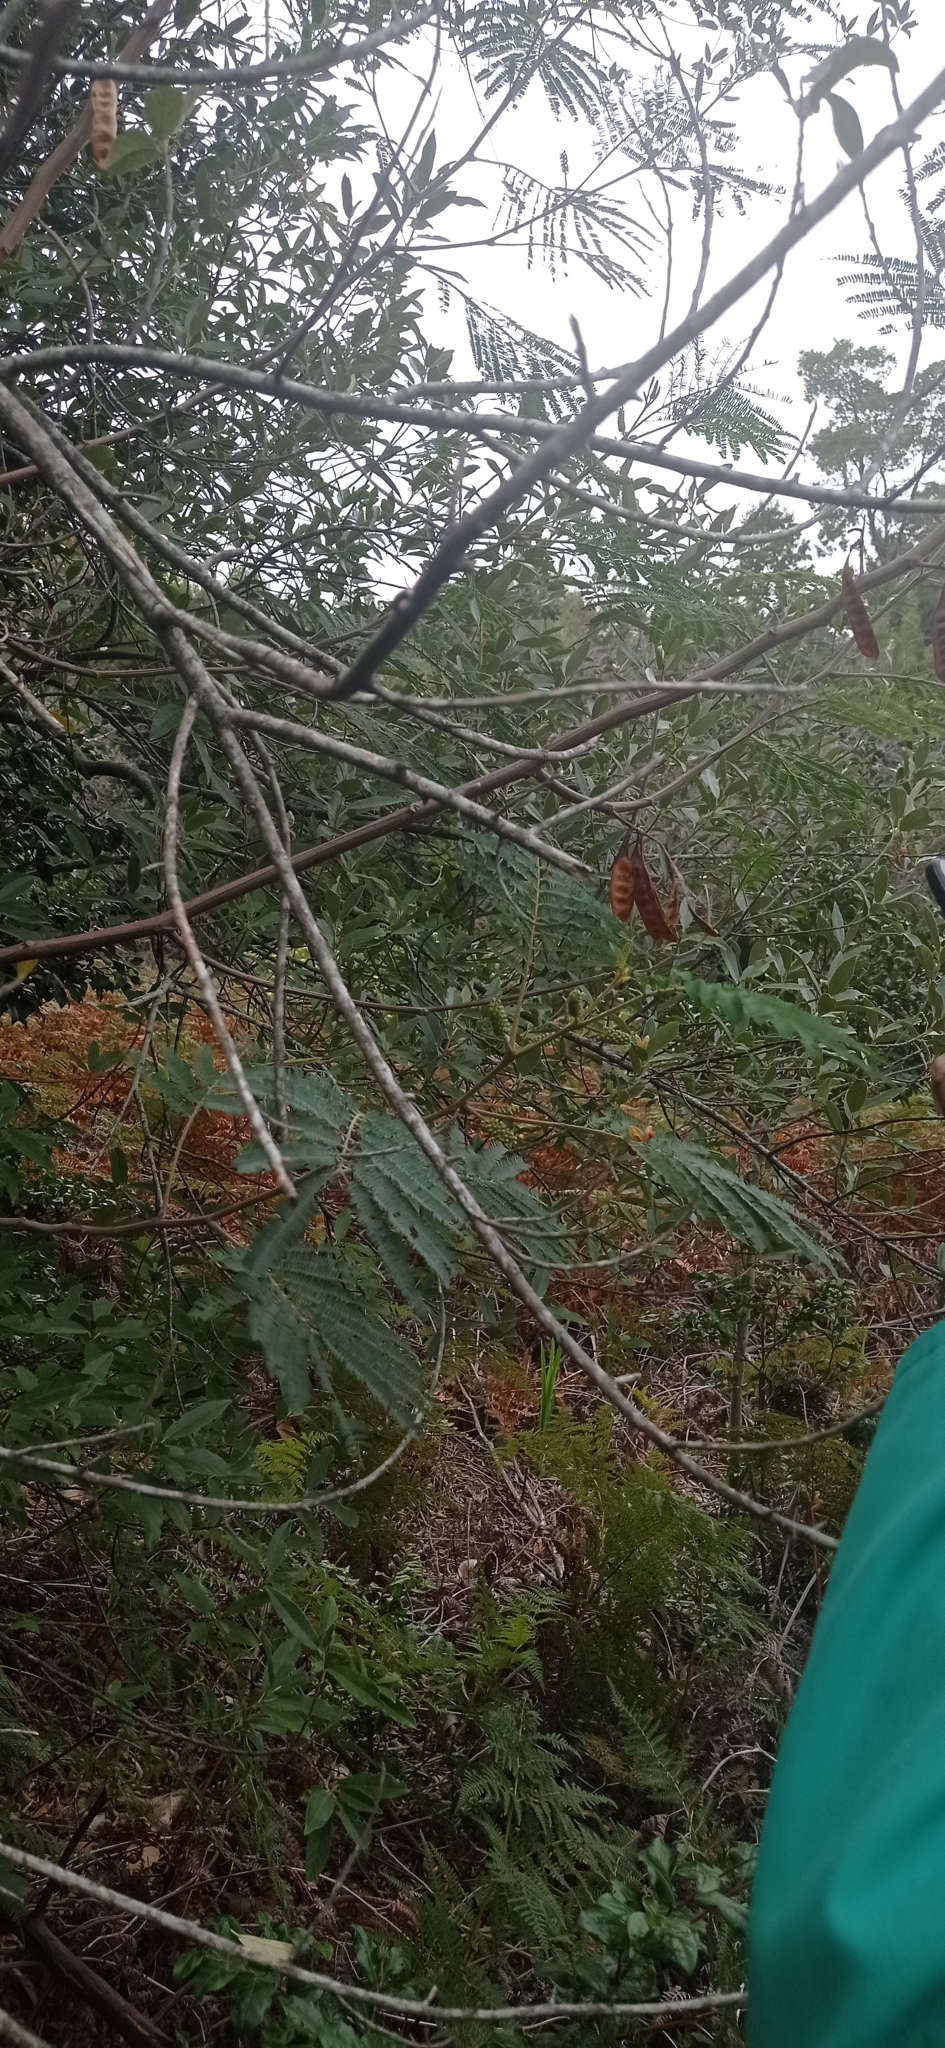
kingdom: Plantae
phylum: Tracheophyta
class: Magnoliopsida
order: Fabales
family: Fabaceae
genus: Paraserianthes
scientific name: Paraserianthes lophantha
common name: Plume albizia
